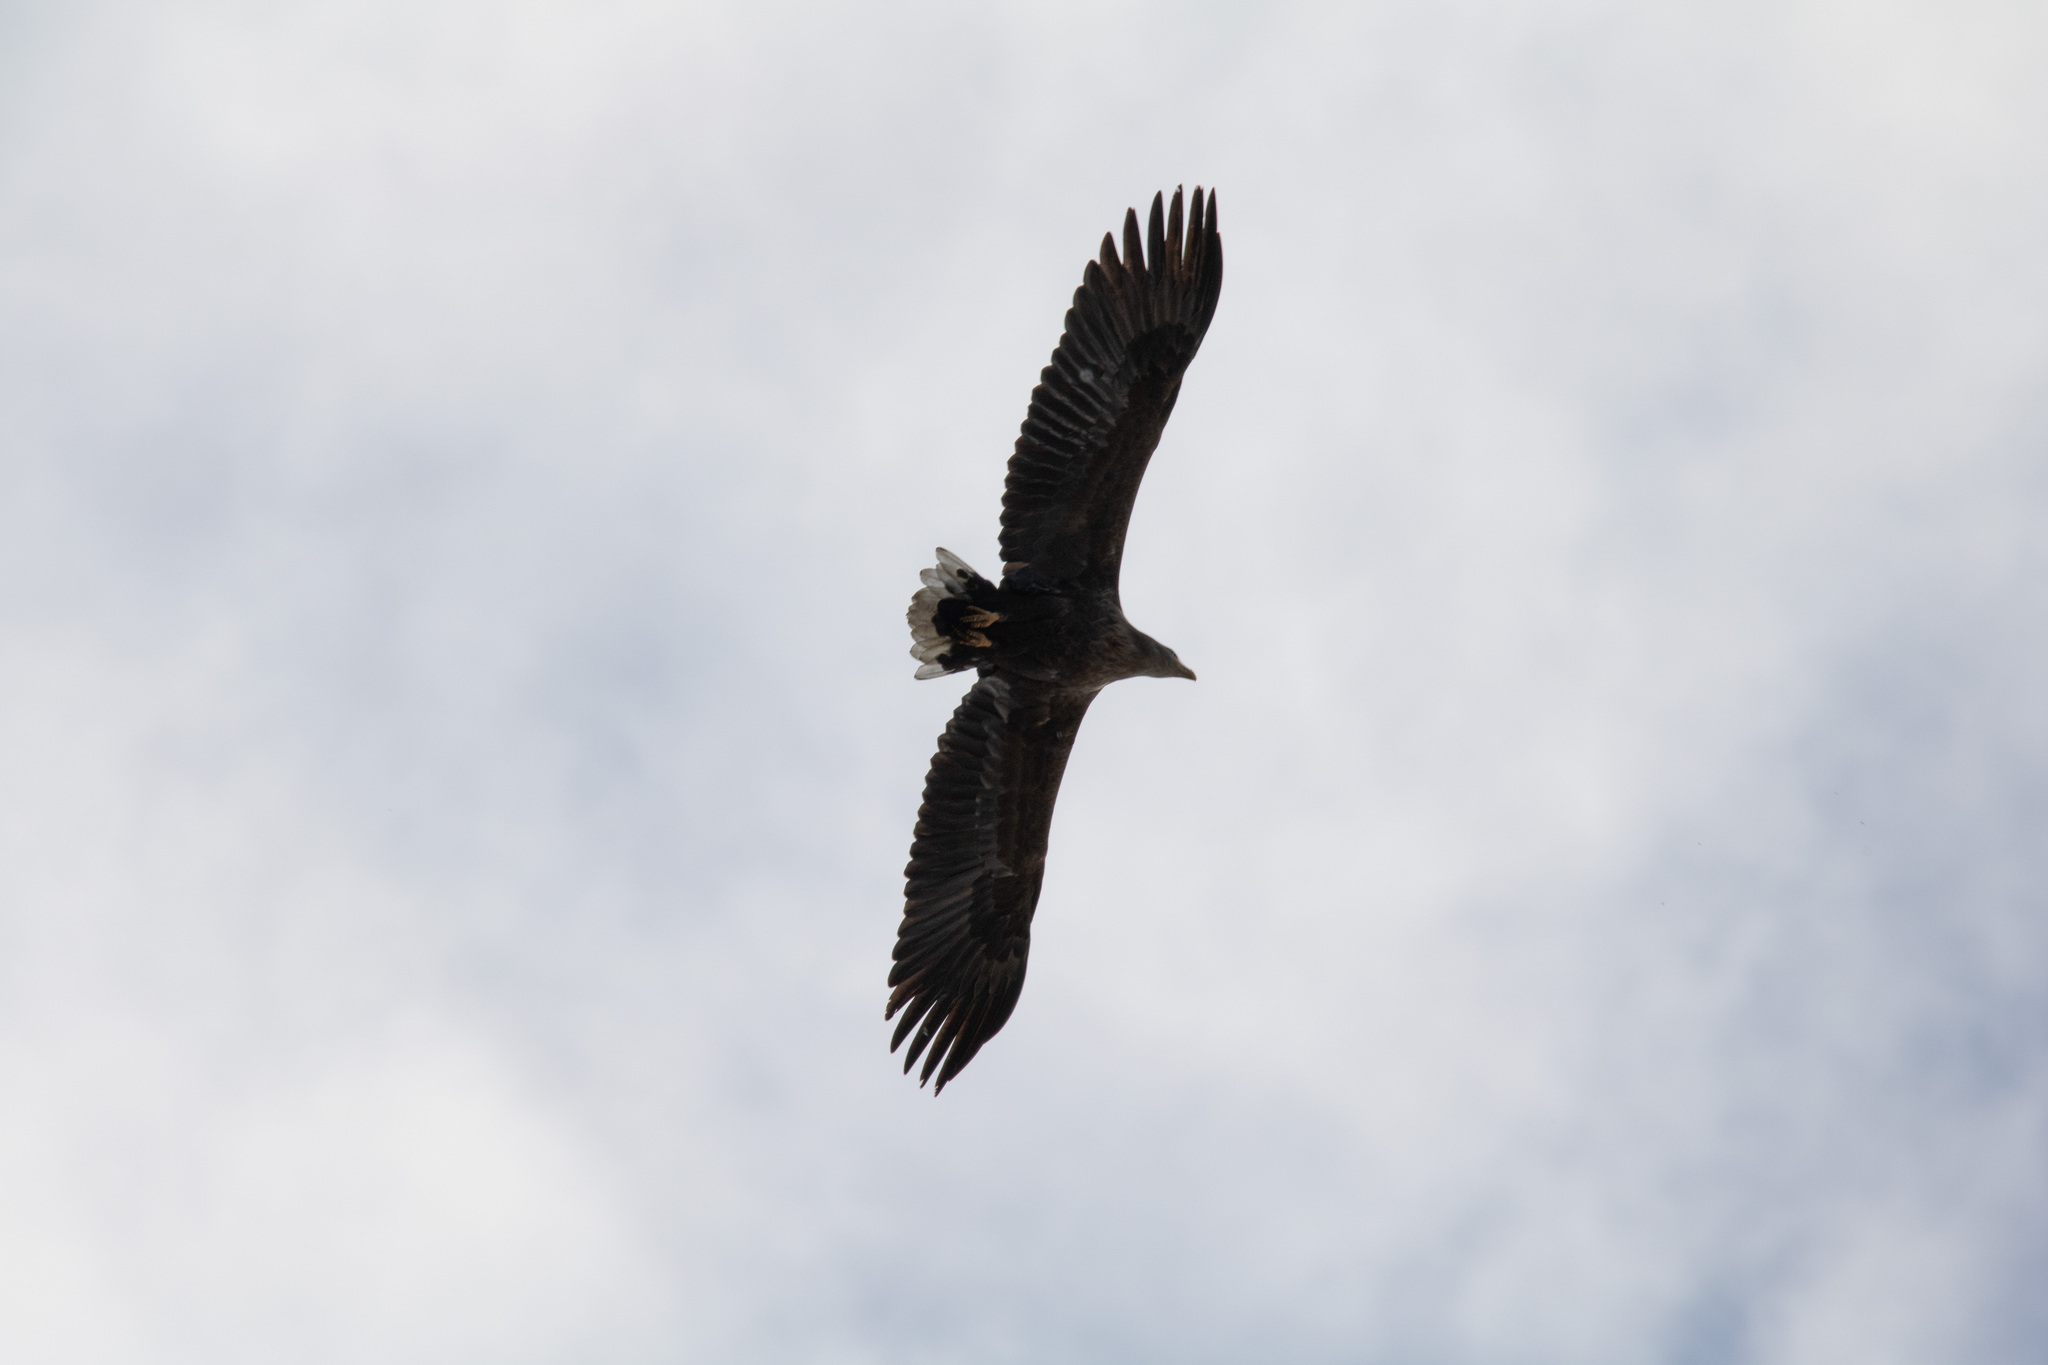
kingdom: Animalia
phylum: Chordata
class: Aves
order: Accipitriformes
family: Accipitridae
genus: Haliaeetus
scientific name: Haliaeetus albicilla
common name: White-tailed eagle
